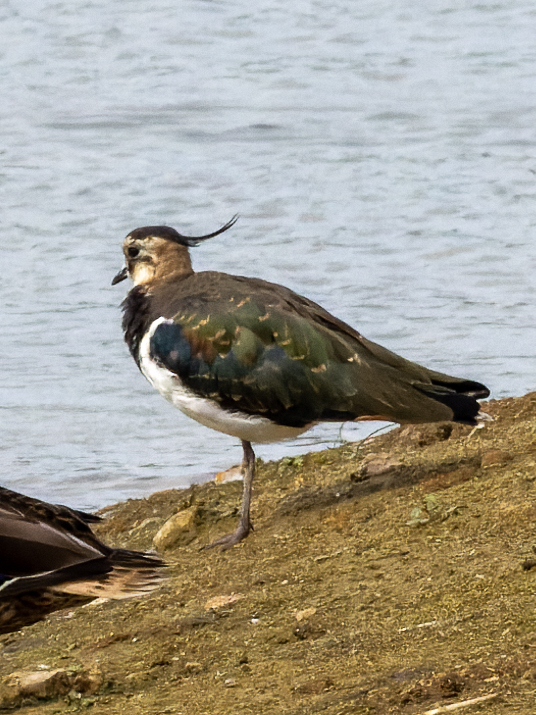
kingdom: Animalia
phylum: Chordata
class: Aves
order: Charadriiformes
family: Charadriidae
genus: Vanellus
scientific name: Vanellus vanellus
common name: Northern lapwing
